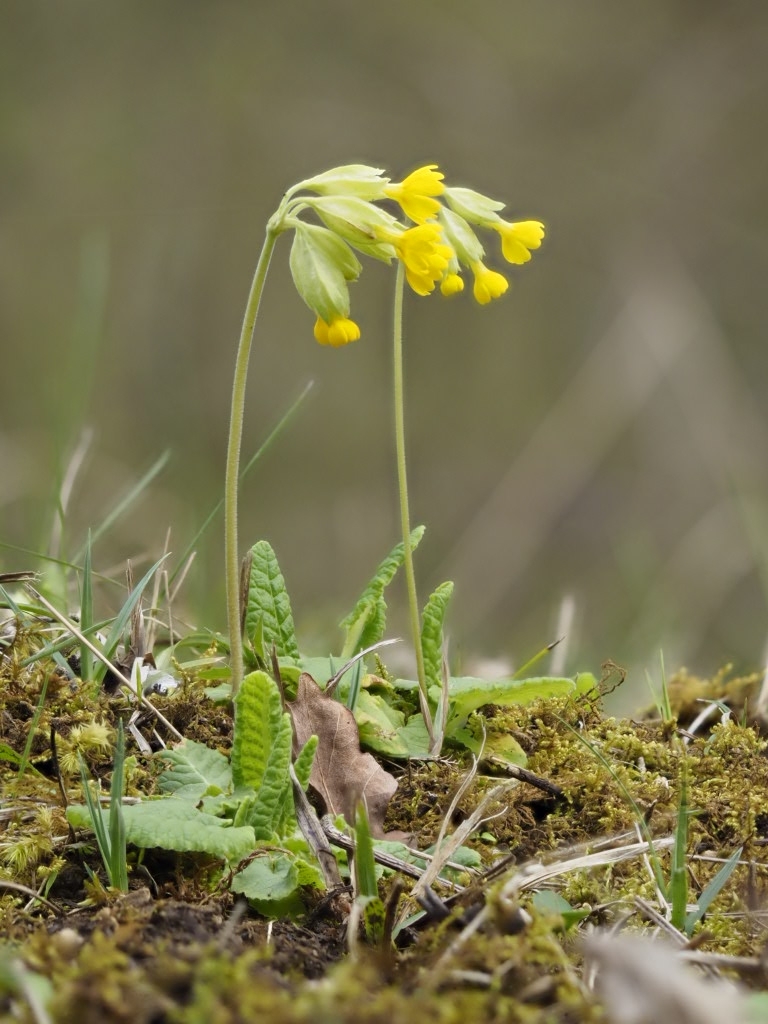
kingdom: Plantae
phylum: Tracheophyta
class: Magnoliopsida
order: Ericales
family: Primulaceae
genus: Primula
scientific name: Primula veris
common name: Cowslip
